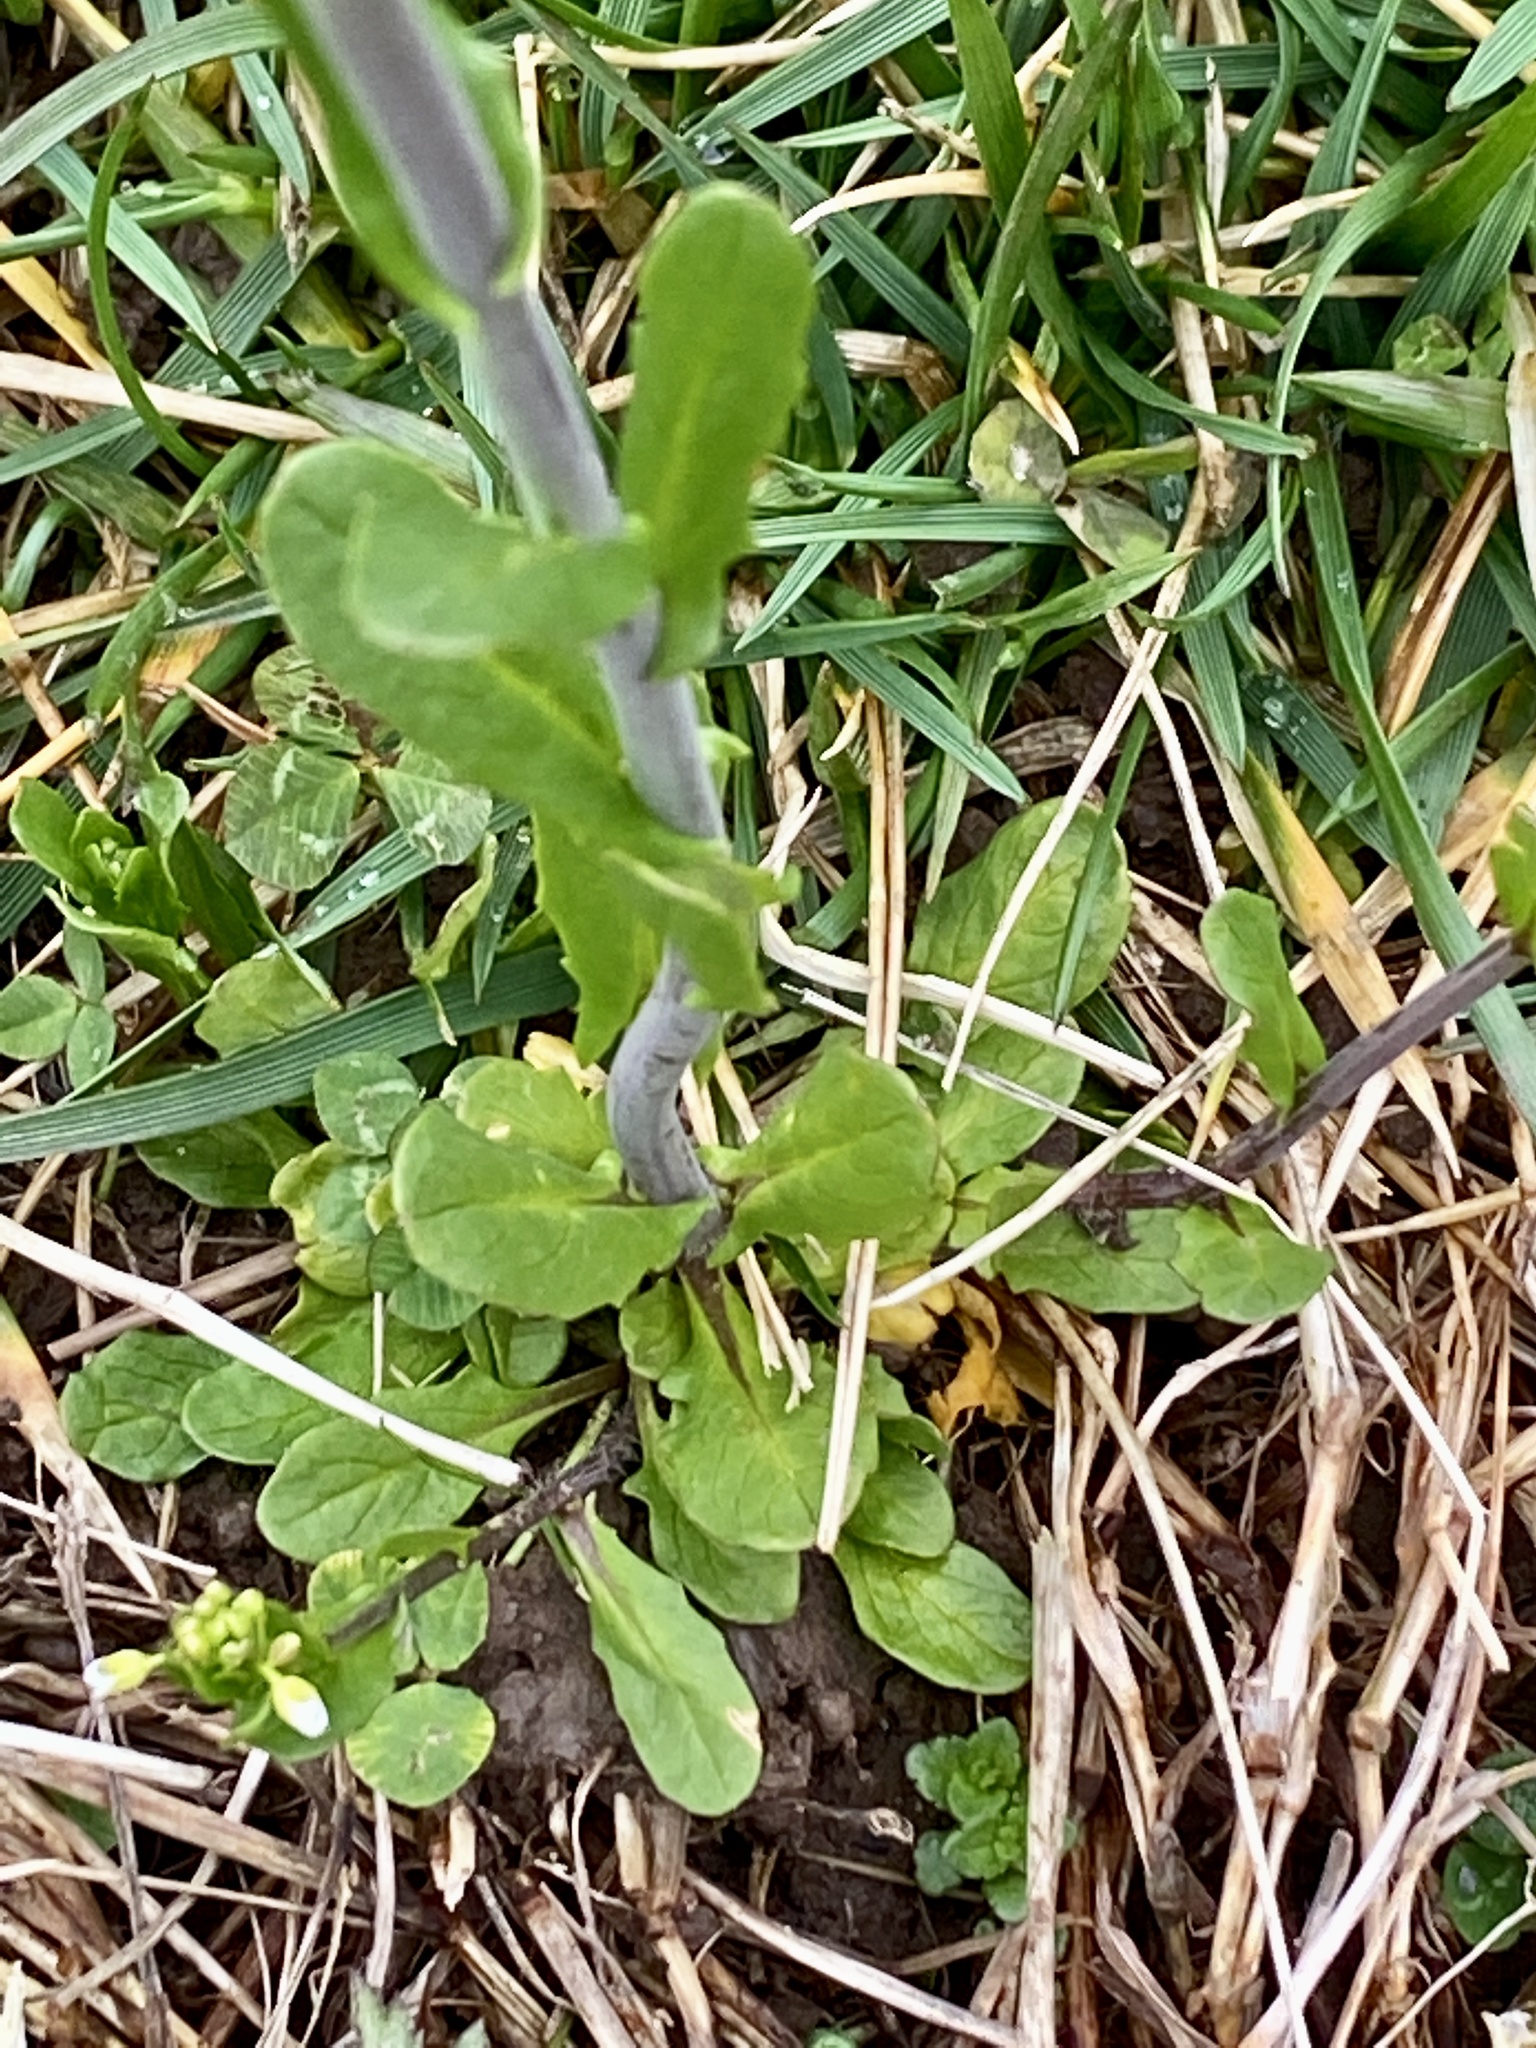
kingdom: Plantae
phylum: Tracheophyta
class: Magnoliopsida
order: Brassicales
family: Brassicaceae
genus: Mummenhoffia
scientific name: Mummenhoffia alliacea
